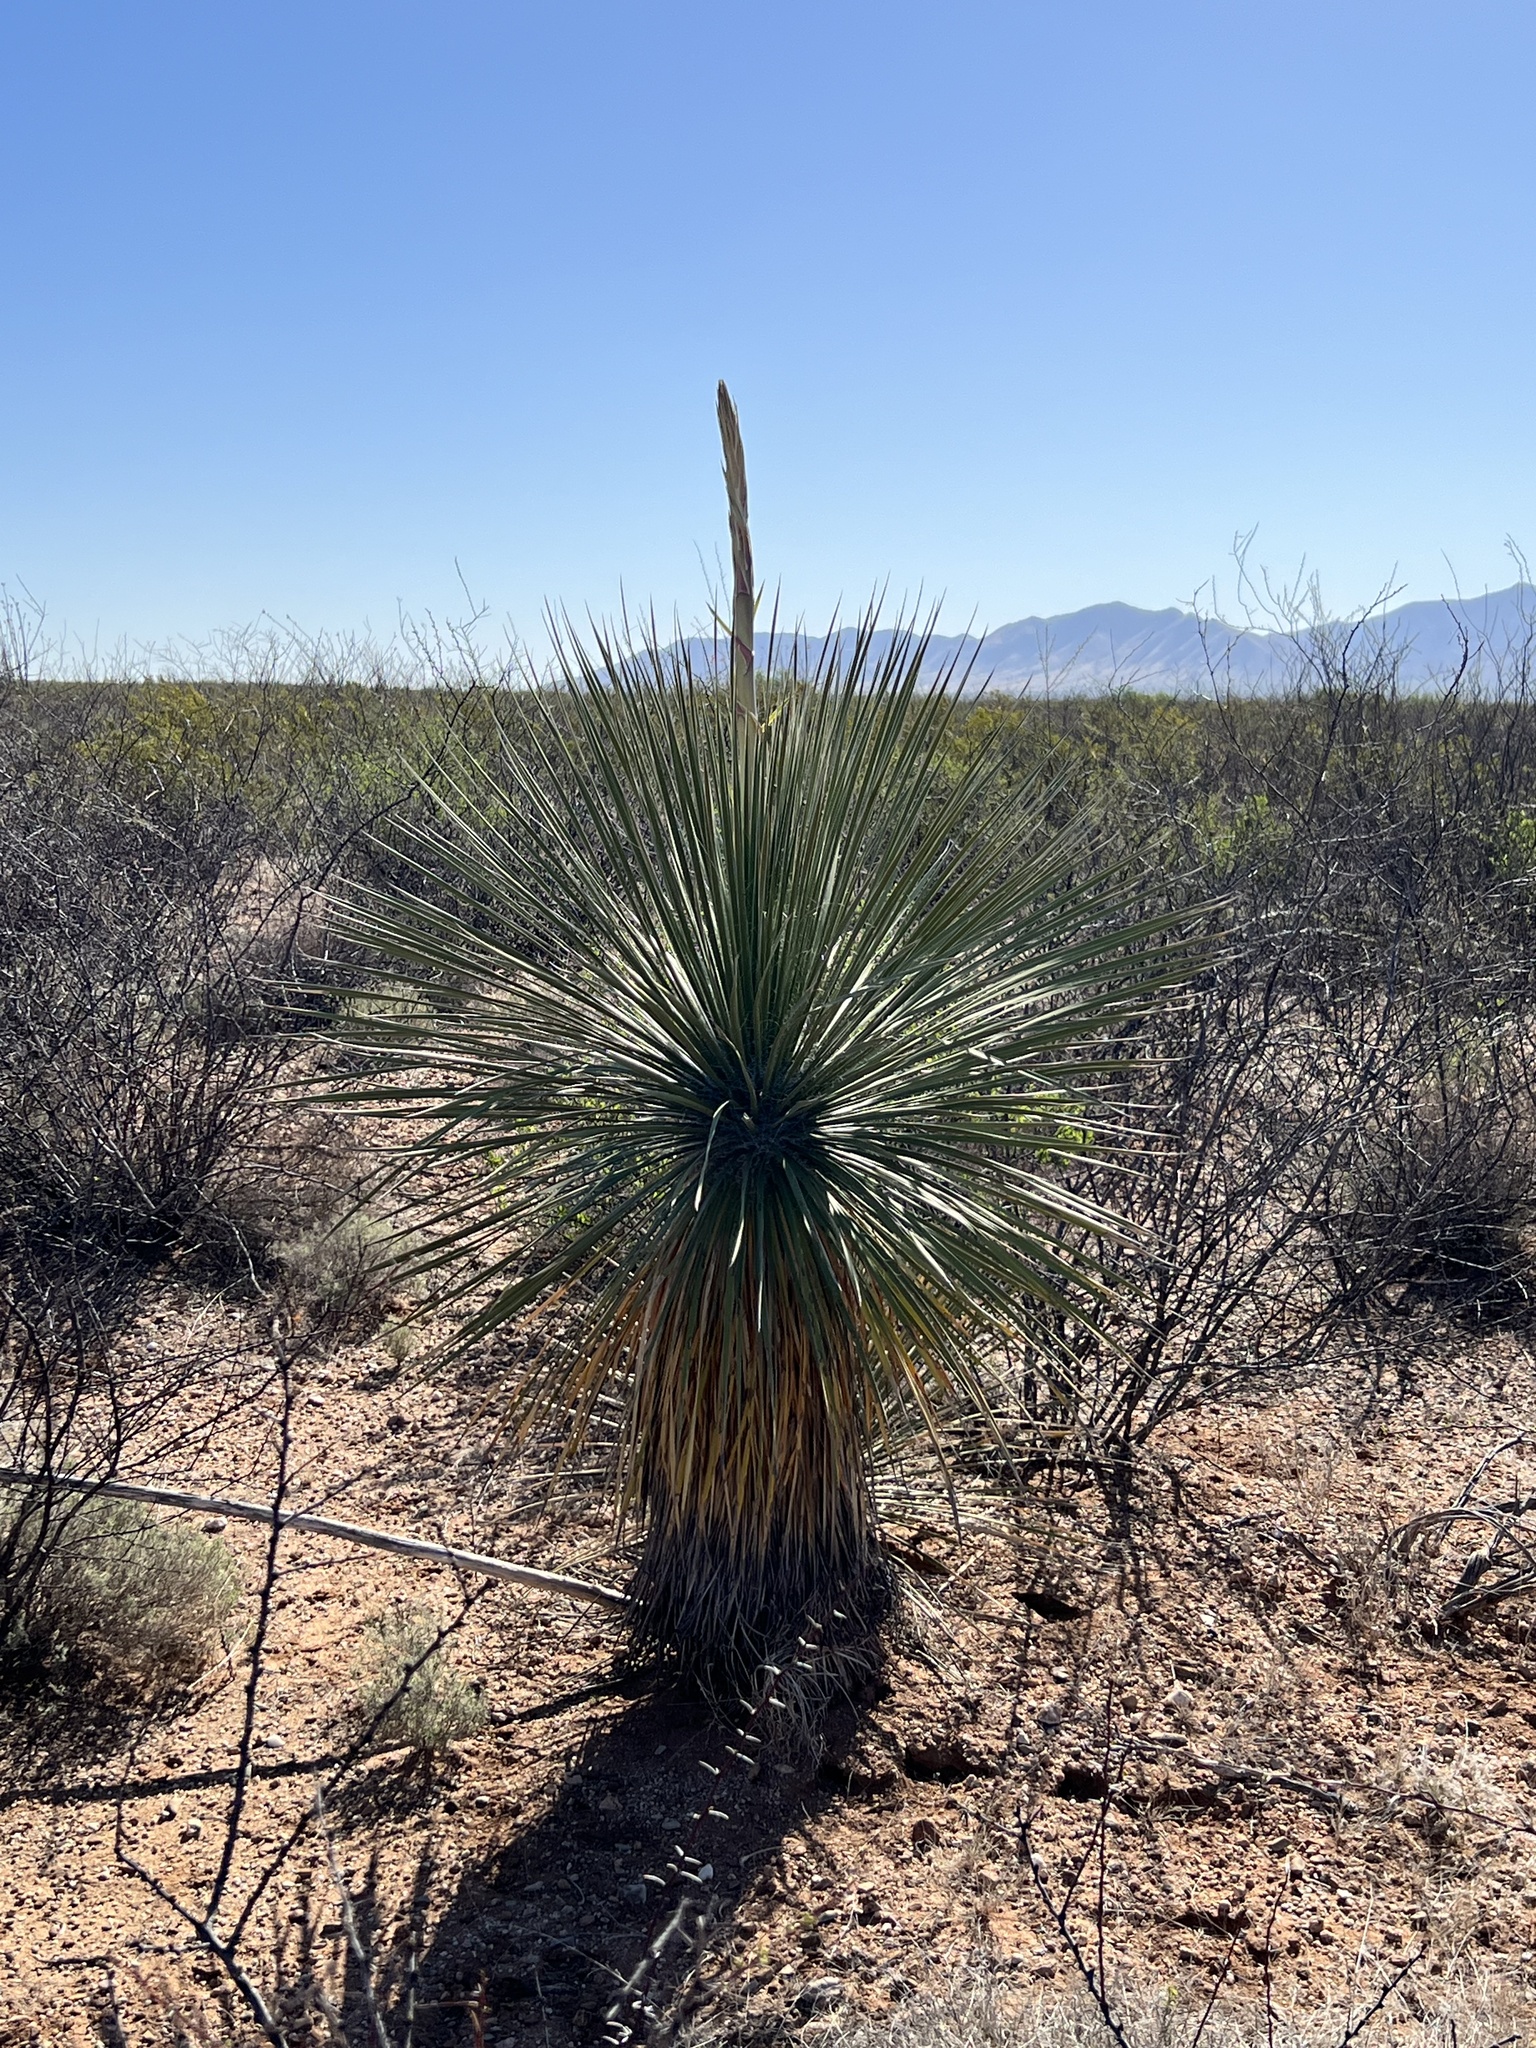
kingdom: Plantae
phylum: Tracheophyta
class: Liliopsida
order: Asparagales
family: Asparagaceae
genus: Yucca
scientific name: Yucca elata
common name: Palmella
